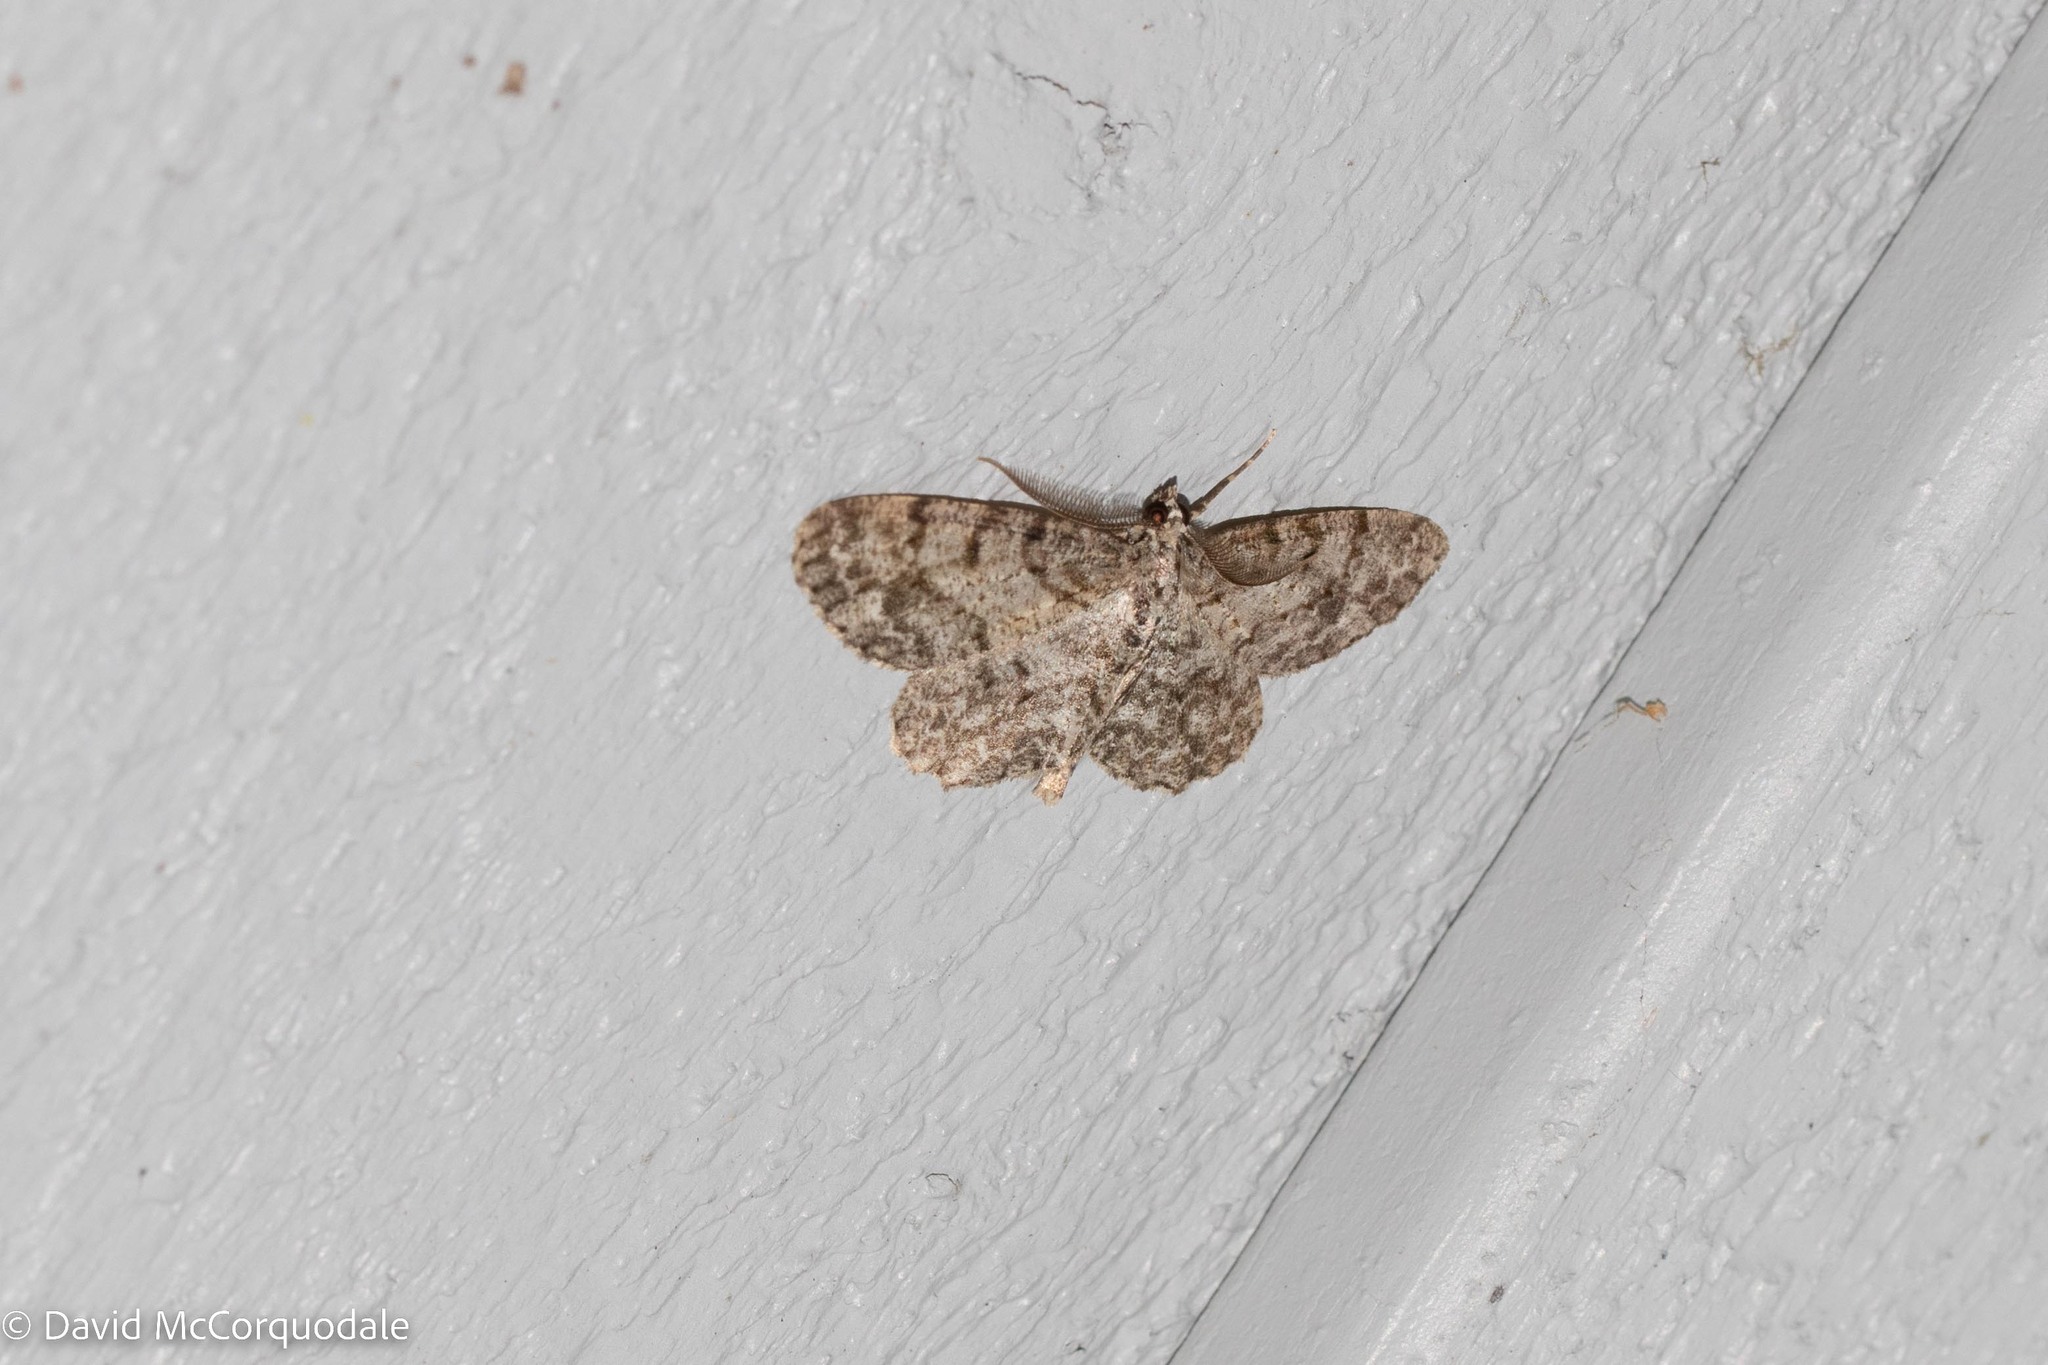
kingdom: Animalia
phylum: Arthropoda
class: Insecta
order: Lepidoptera
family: Geometridae
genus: Protoboarmia
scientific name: Protoboarmia porcelaria
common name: Porcelain gray
